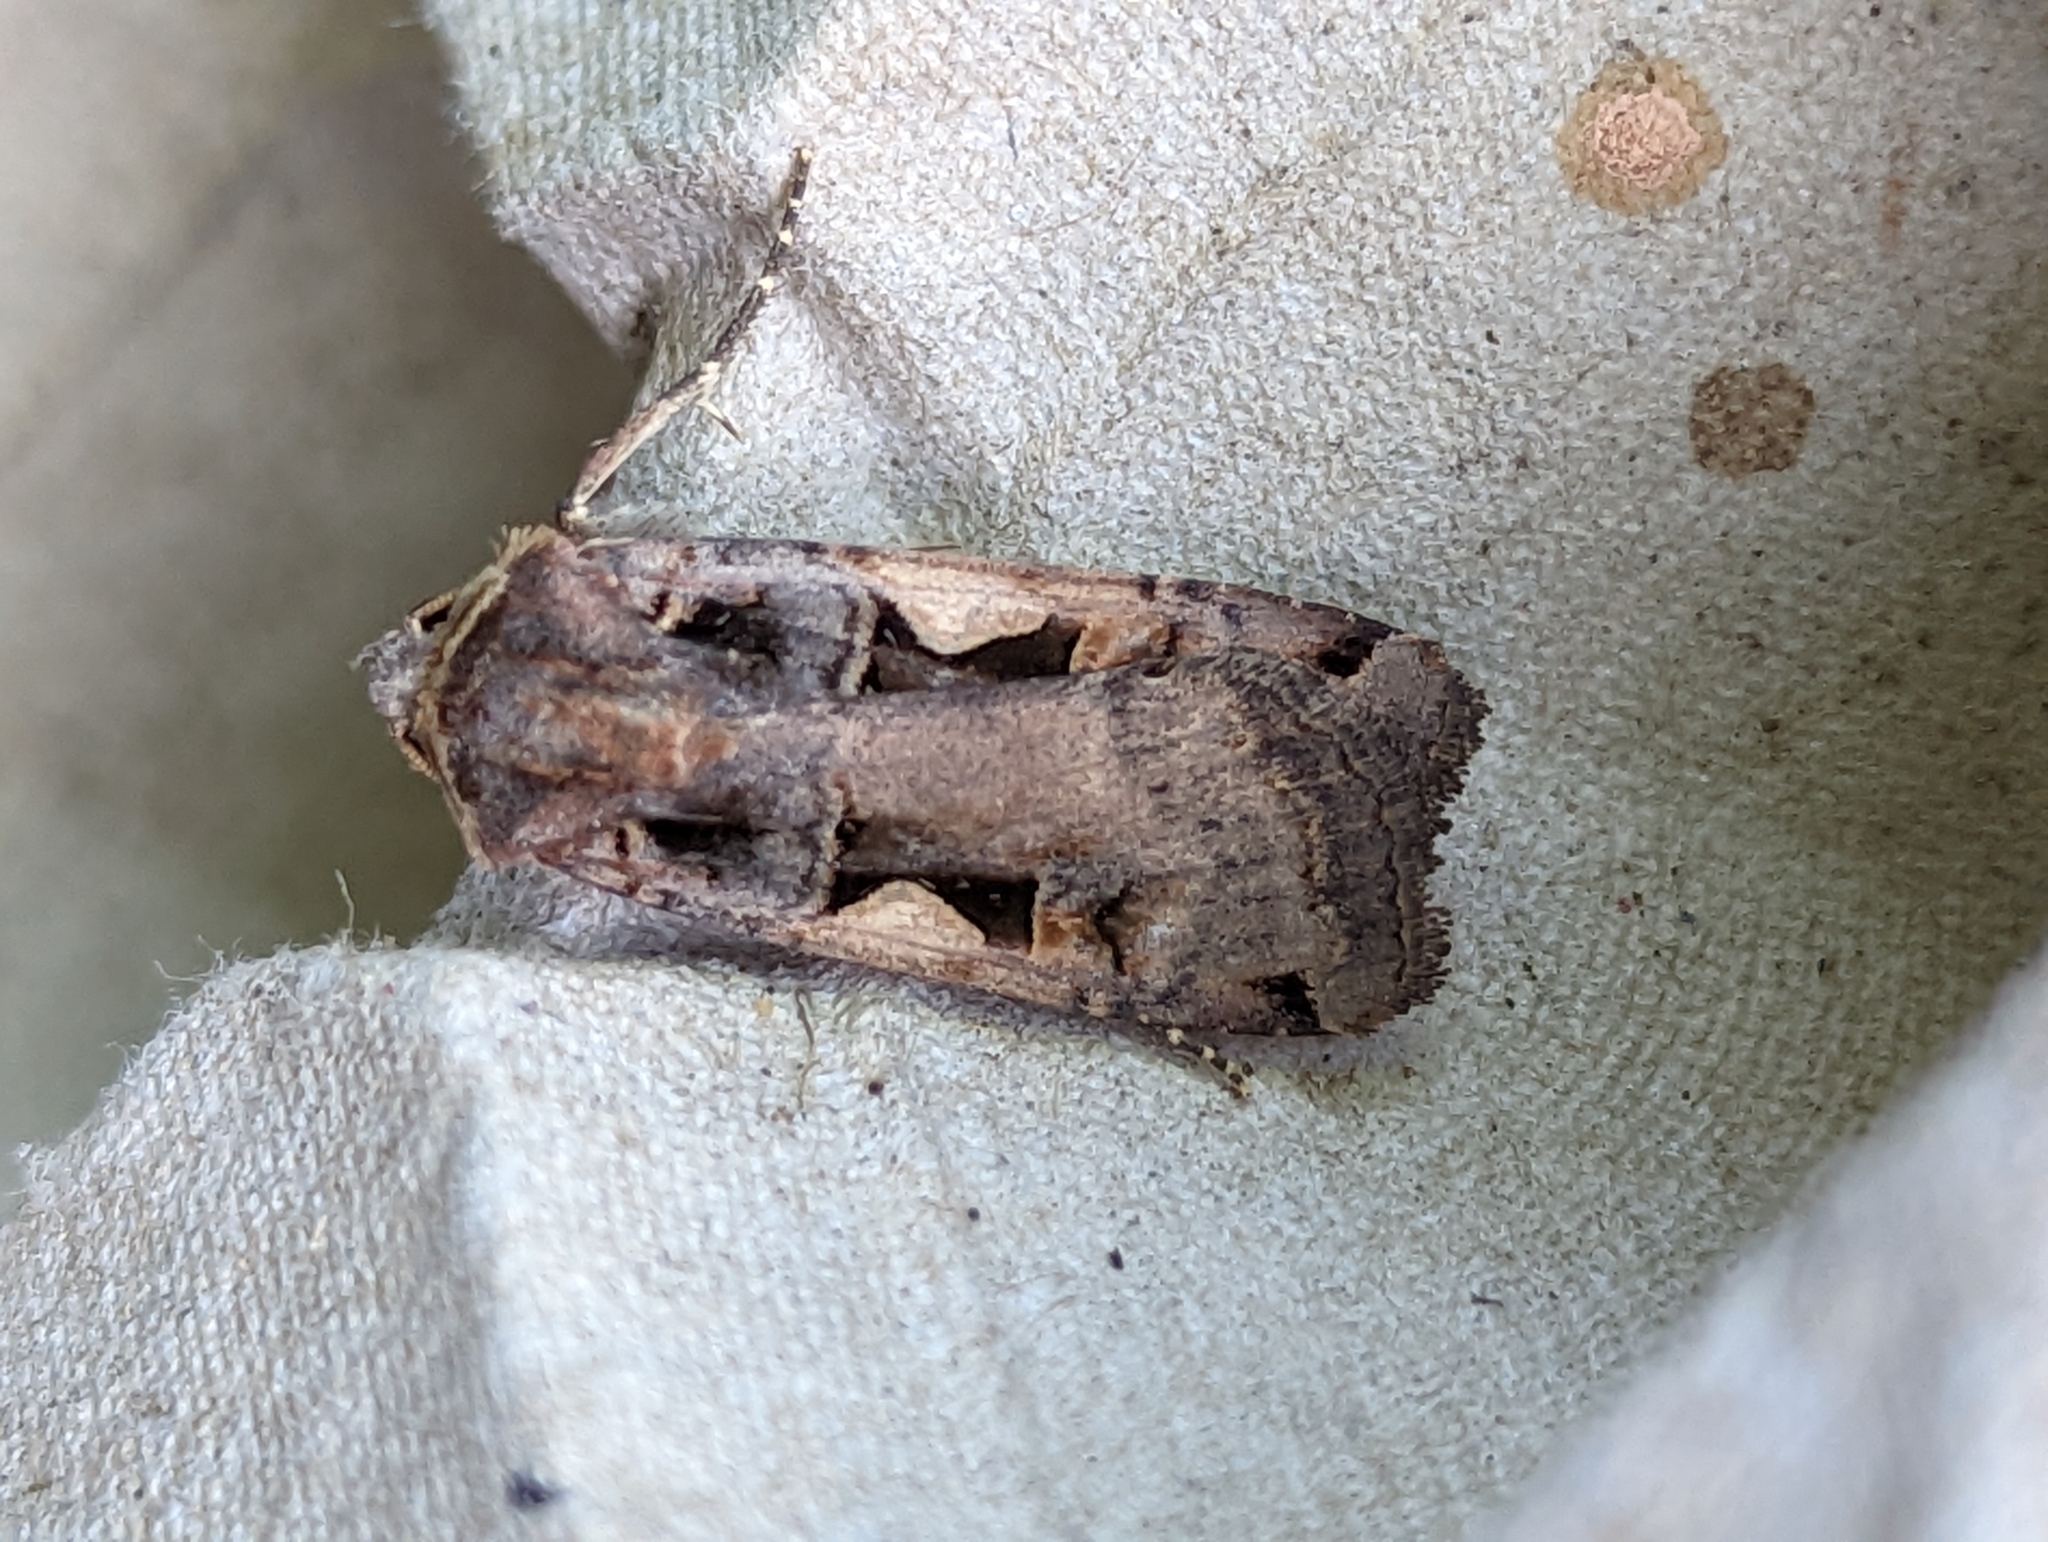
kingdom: Animalia
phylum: Arthropoda
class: Insecta
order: Lepidoptera
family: Noctuidae
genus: Xestia
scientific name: Xestia c-nigrum
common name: Setaceous hebrew character
